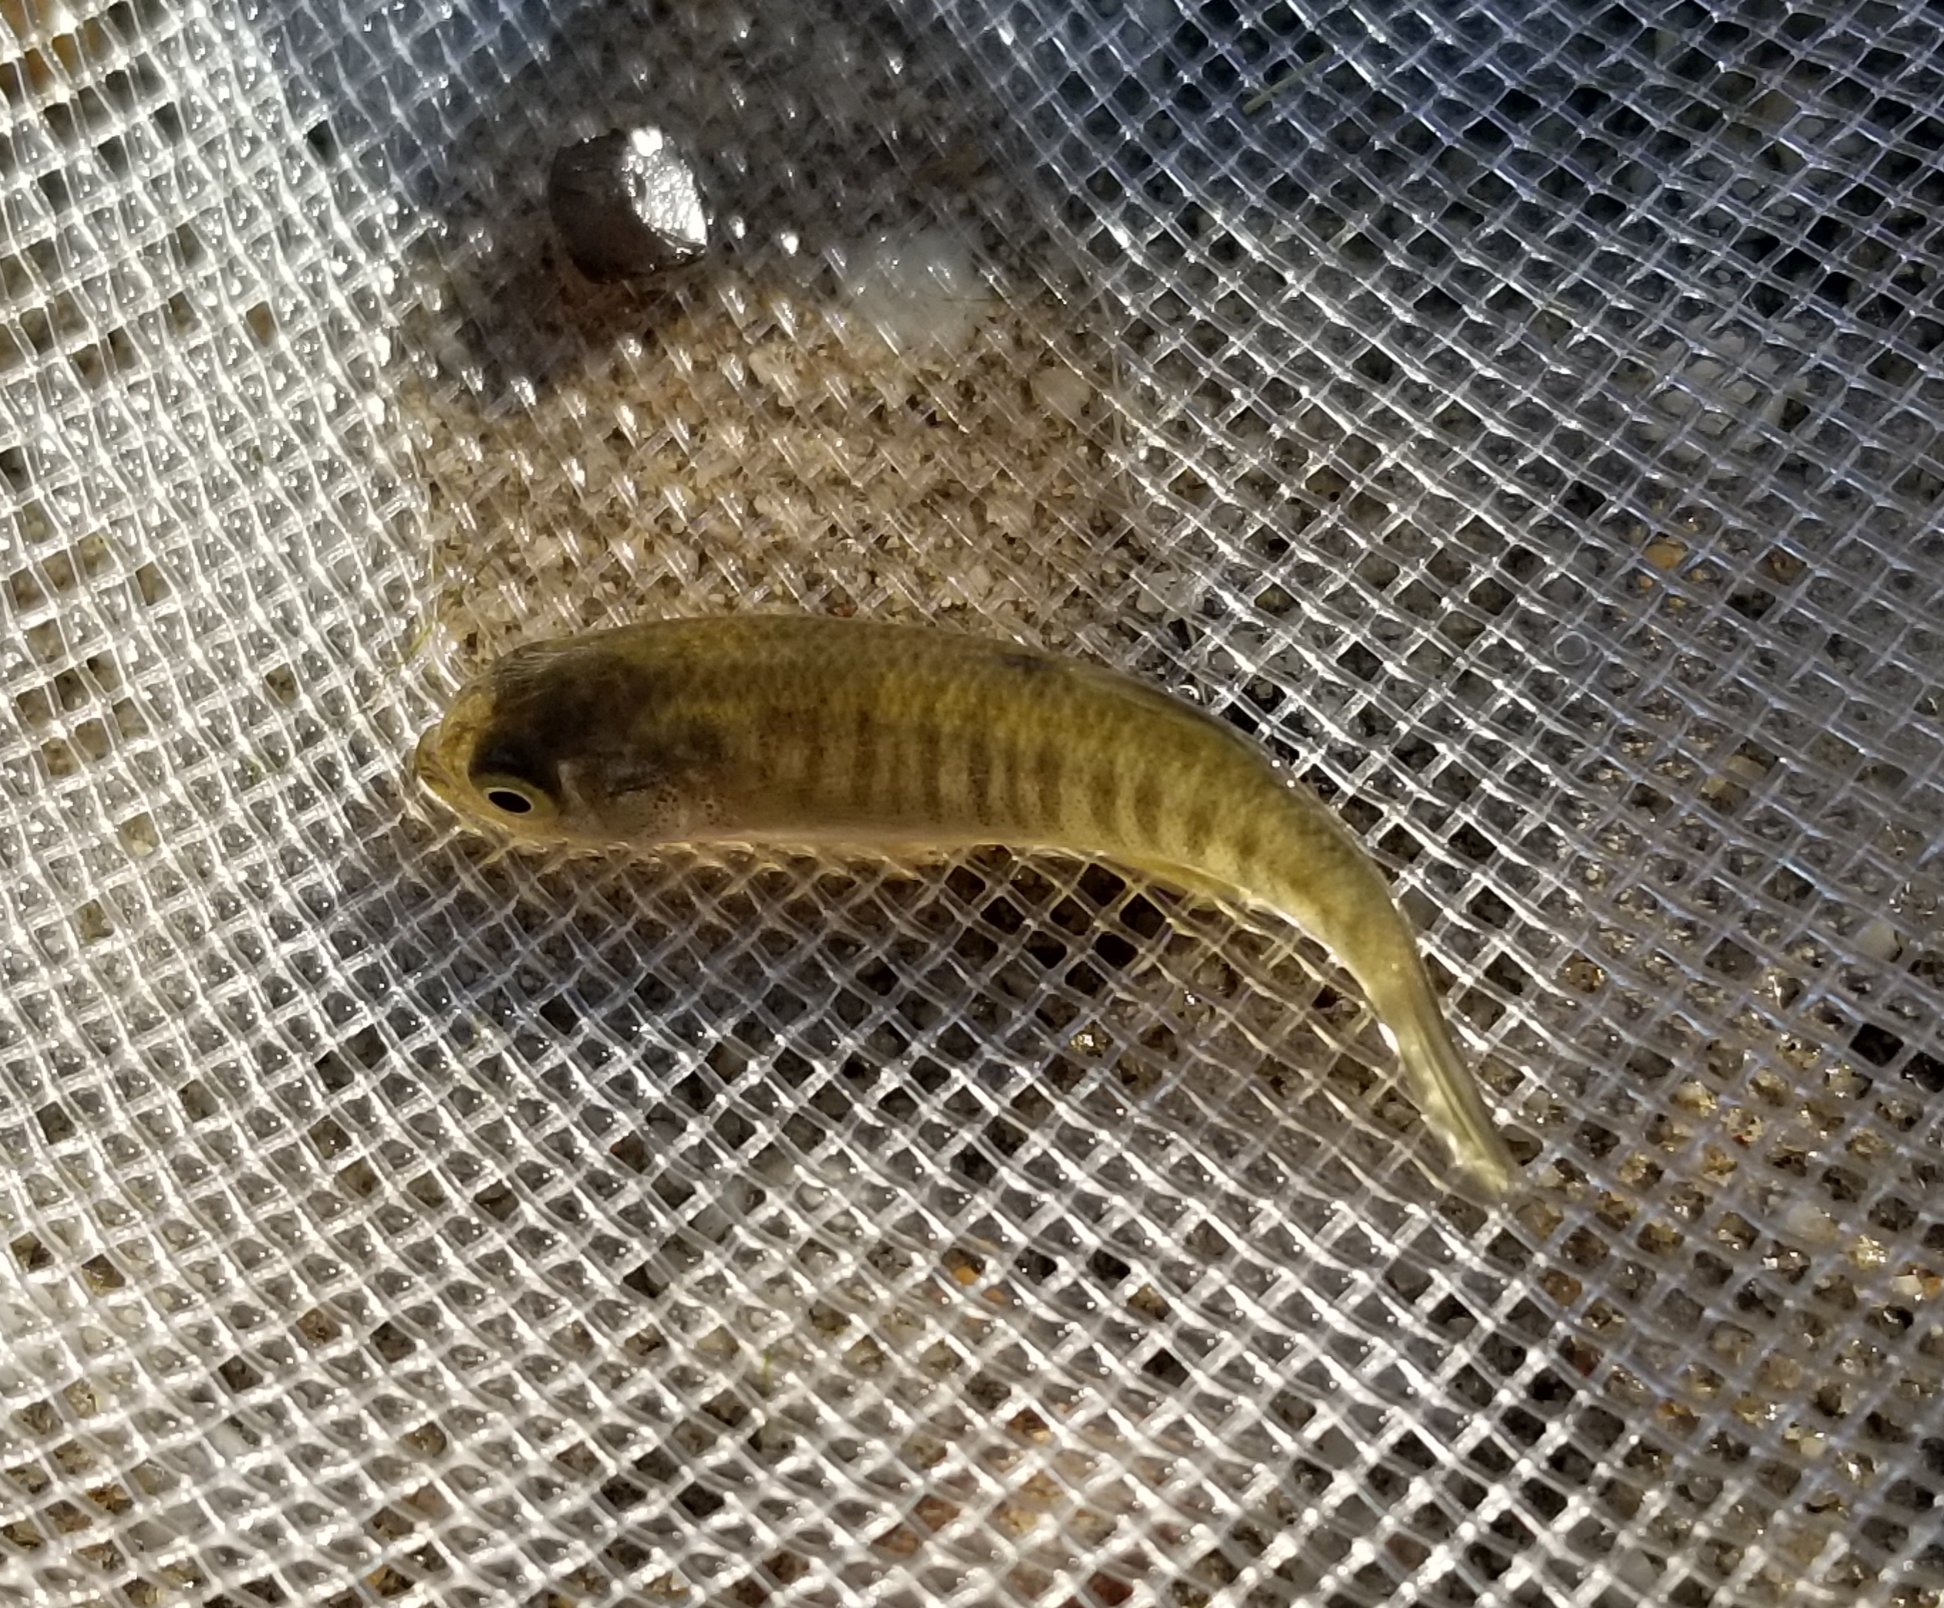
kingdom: Animalia
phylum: Chordata
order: Cyprinodontiformes
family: Fundulidae
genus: Fundulus
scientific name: Fundulus heteroclitus
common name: Mummichog
